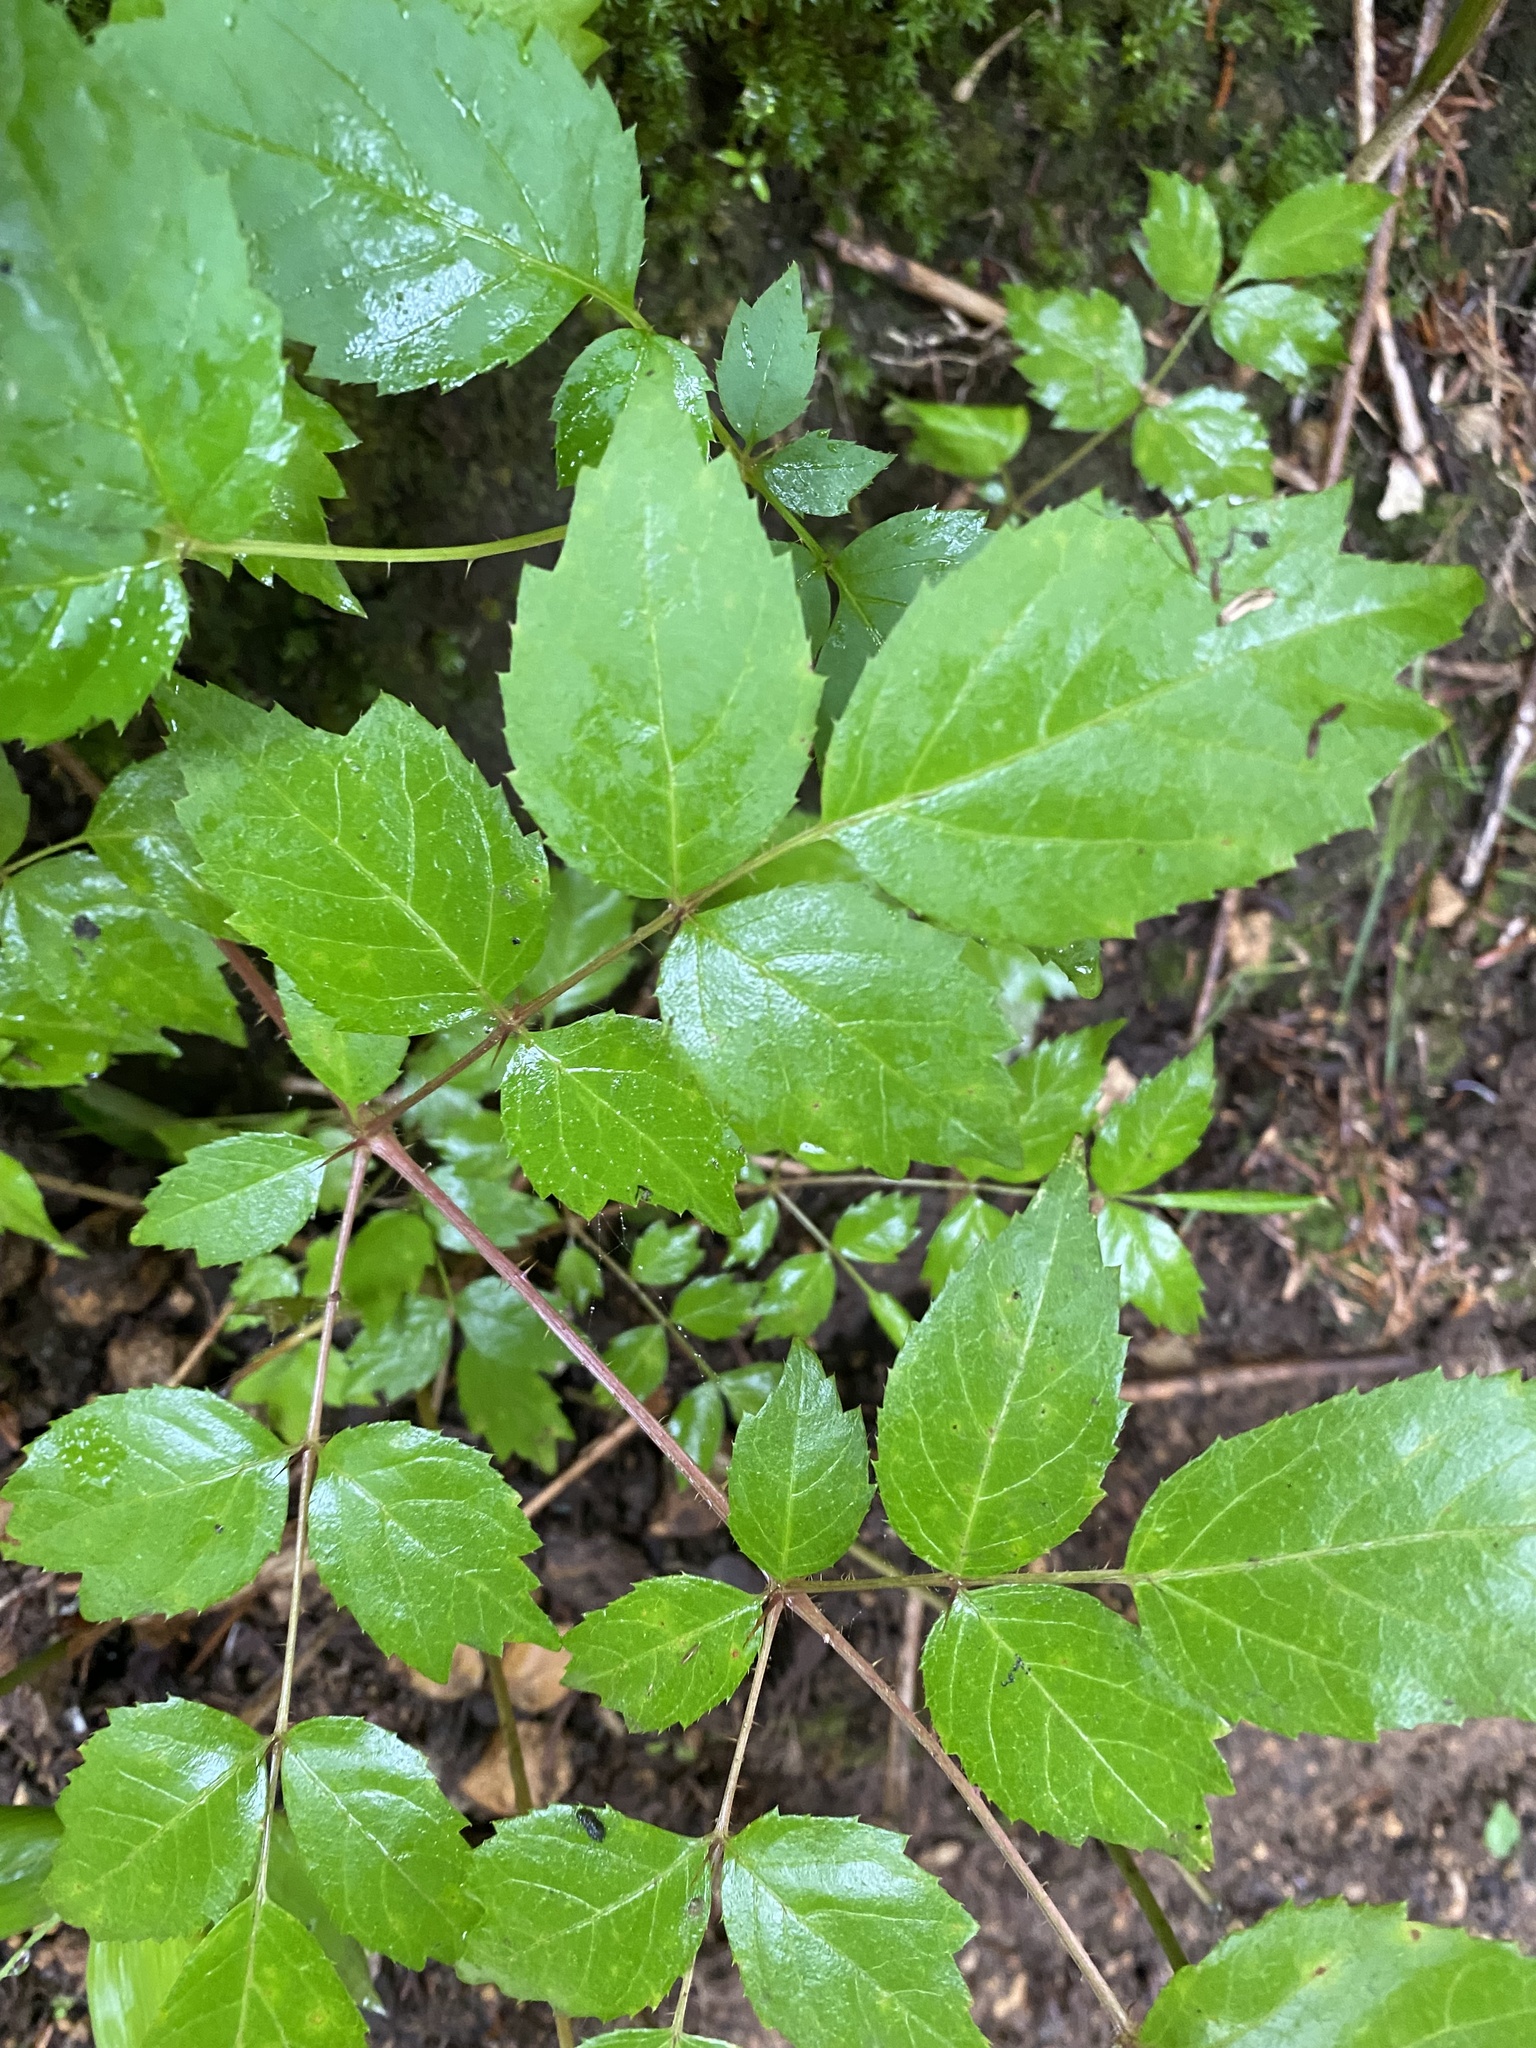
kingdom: Plantae
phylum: Tracheophyta
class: Magnoliopsida
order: Apiales
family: Araliaceae
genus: Aralia
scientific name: Aralia elata
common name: Japanese angelica-tree
